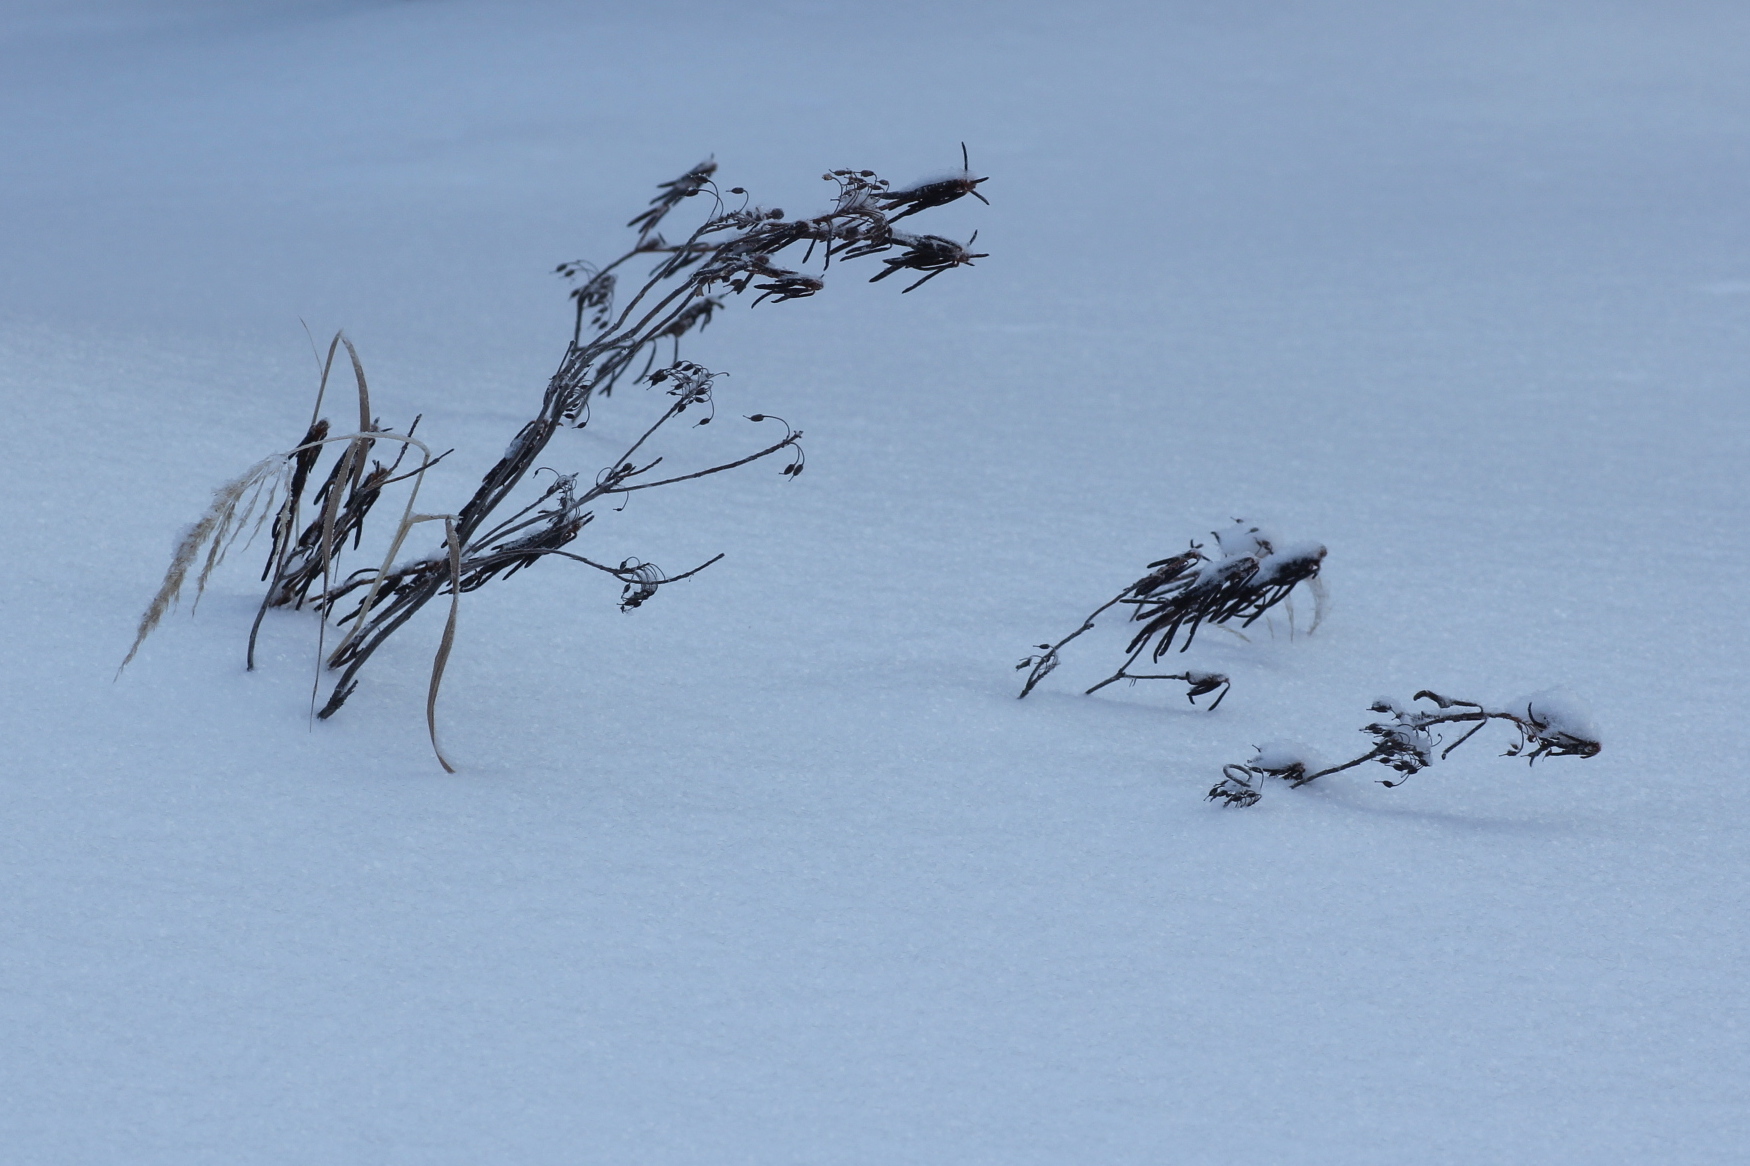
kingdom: Plantae
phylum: Tracheophyta
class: Magnoliopsida
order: Ericales
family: Ericaceae
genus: Rhododendron
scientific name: Rhododendron tomentosum
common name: Marsh labrador tea
